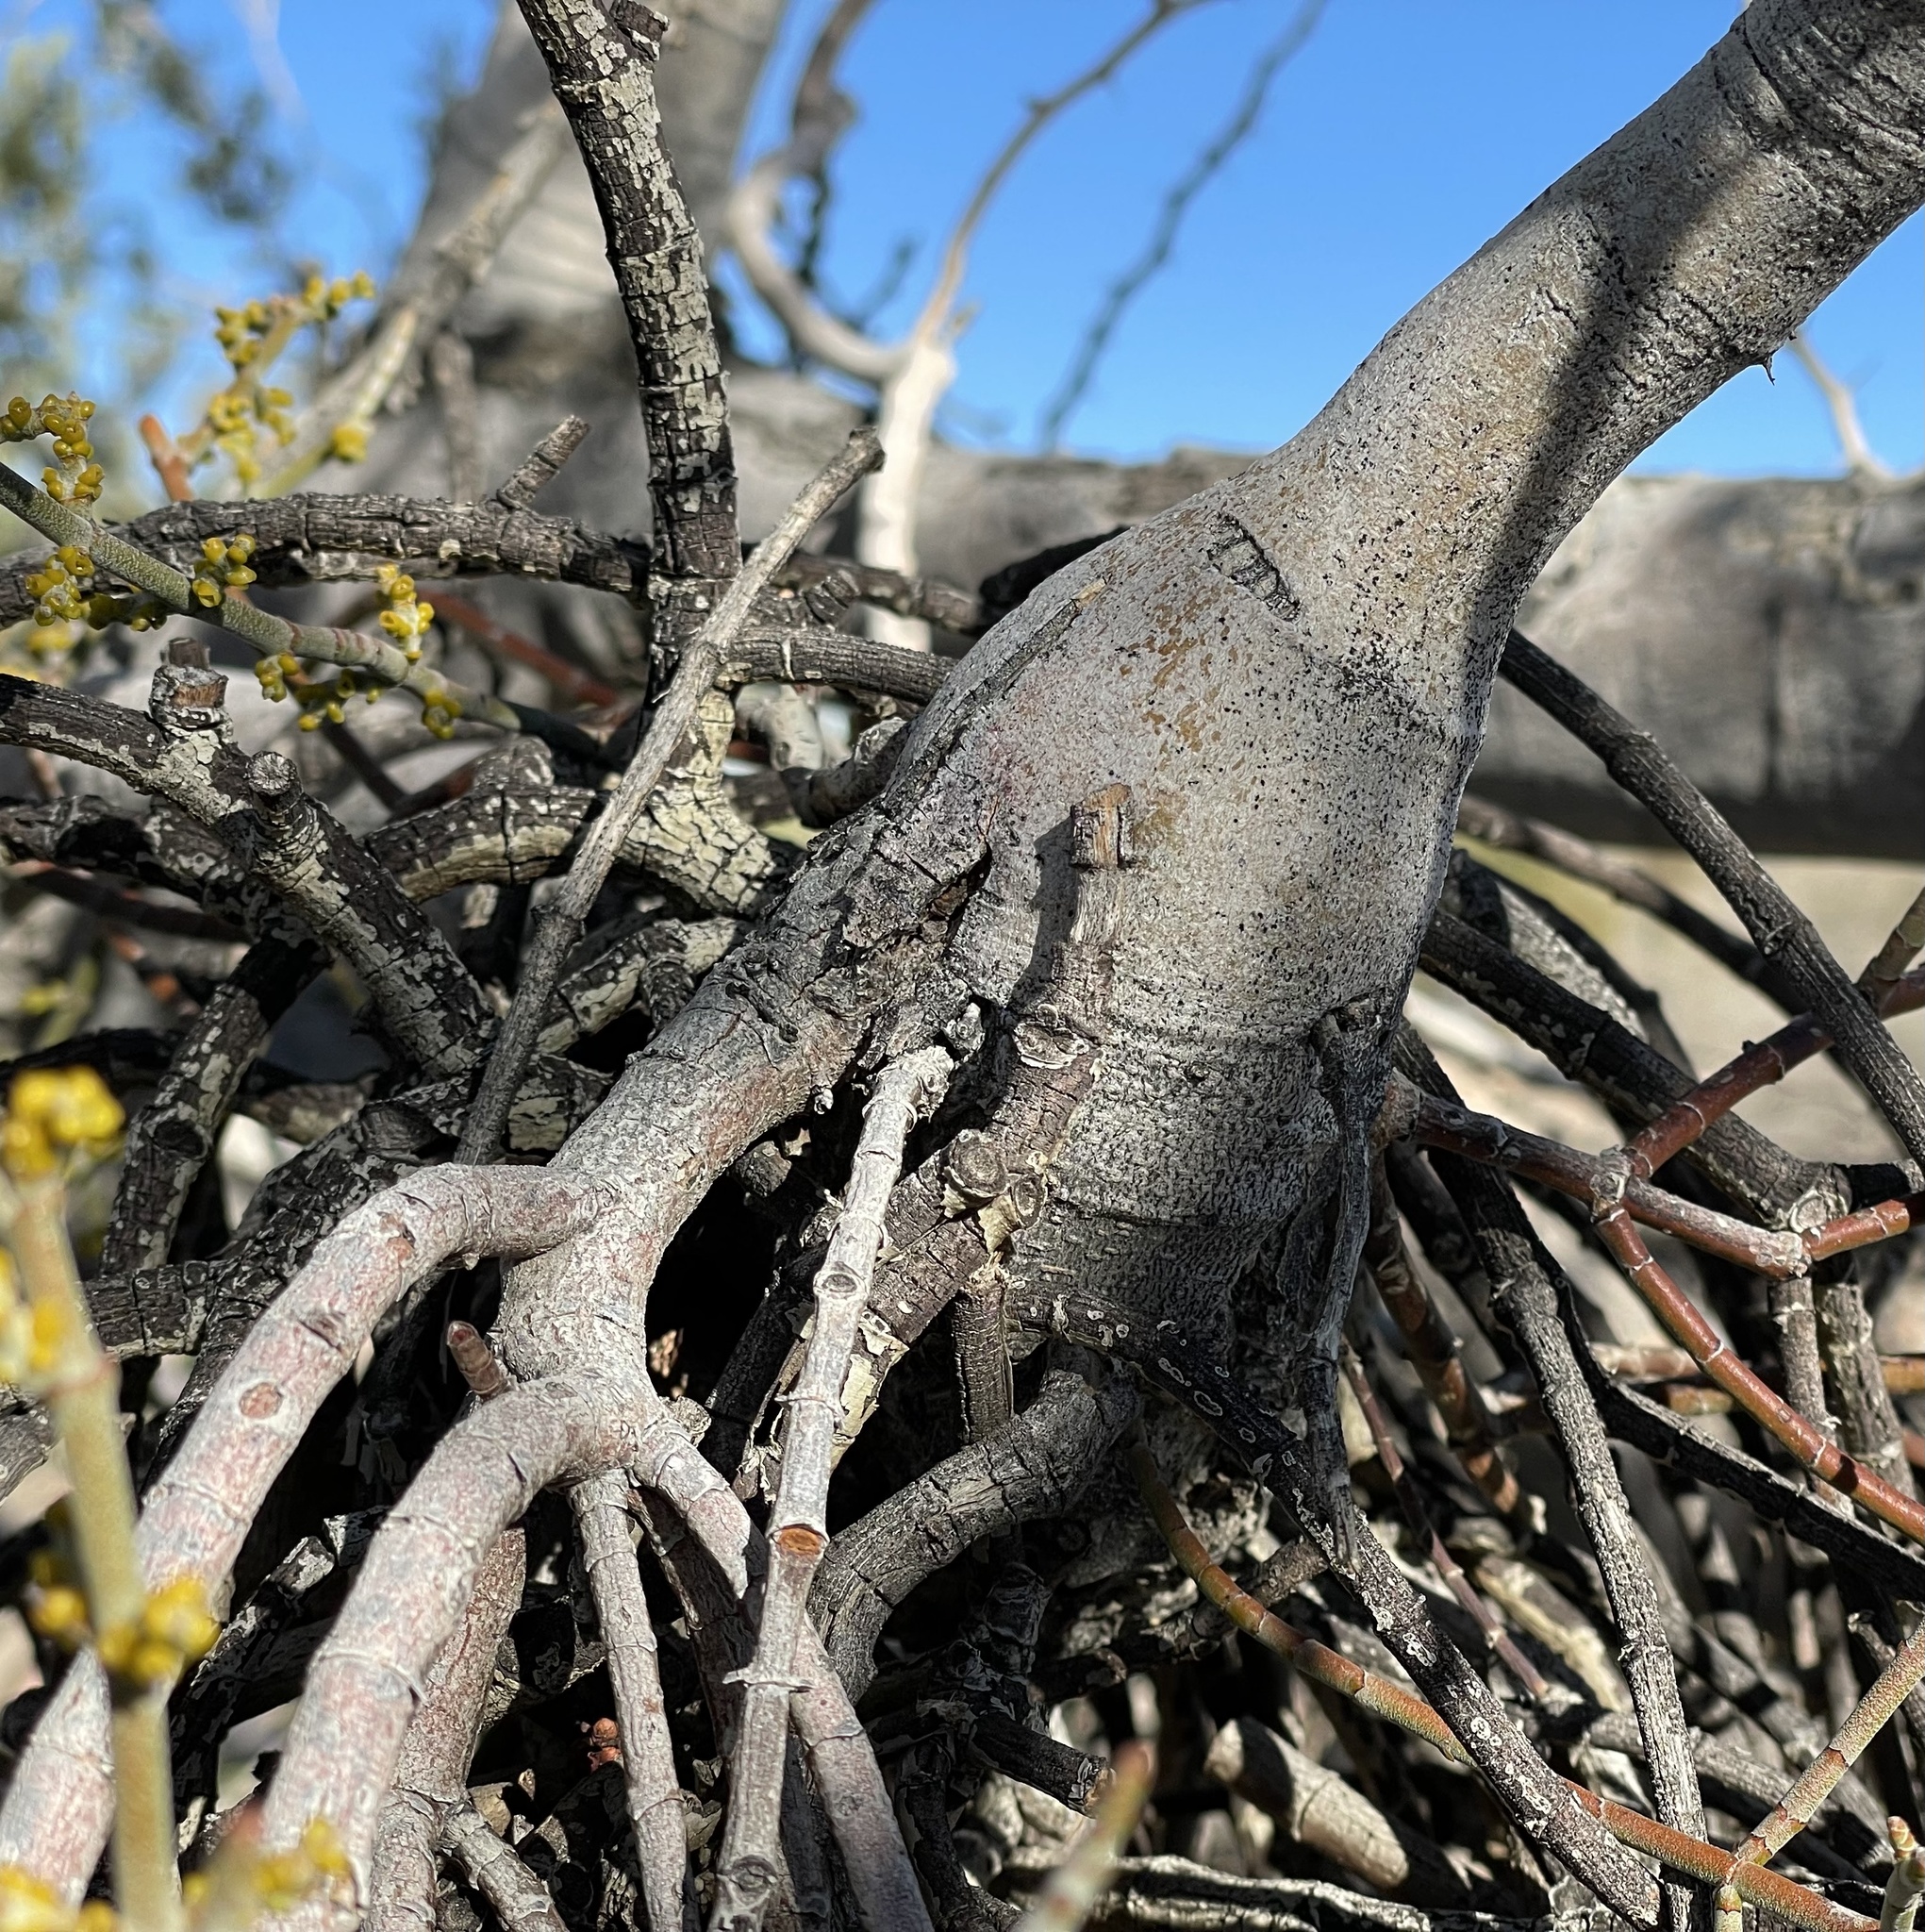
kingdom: Plantae
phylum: Tracheophyta
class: Magnoliopsida
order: Santalales
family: Viscaceae
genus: Phoradendron
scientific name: Phoradendron californicum
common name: Acacia mistletoe
